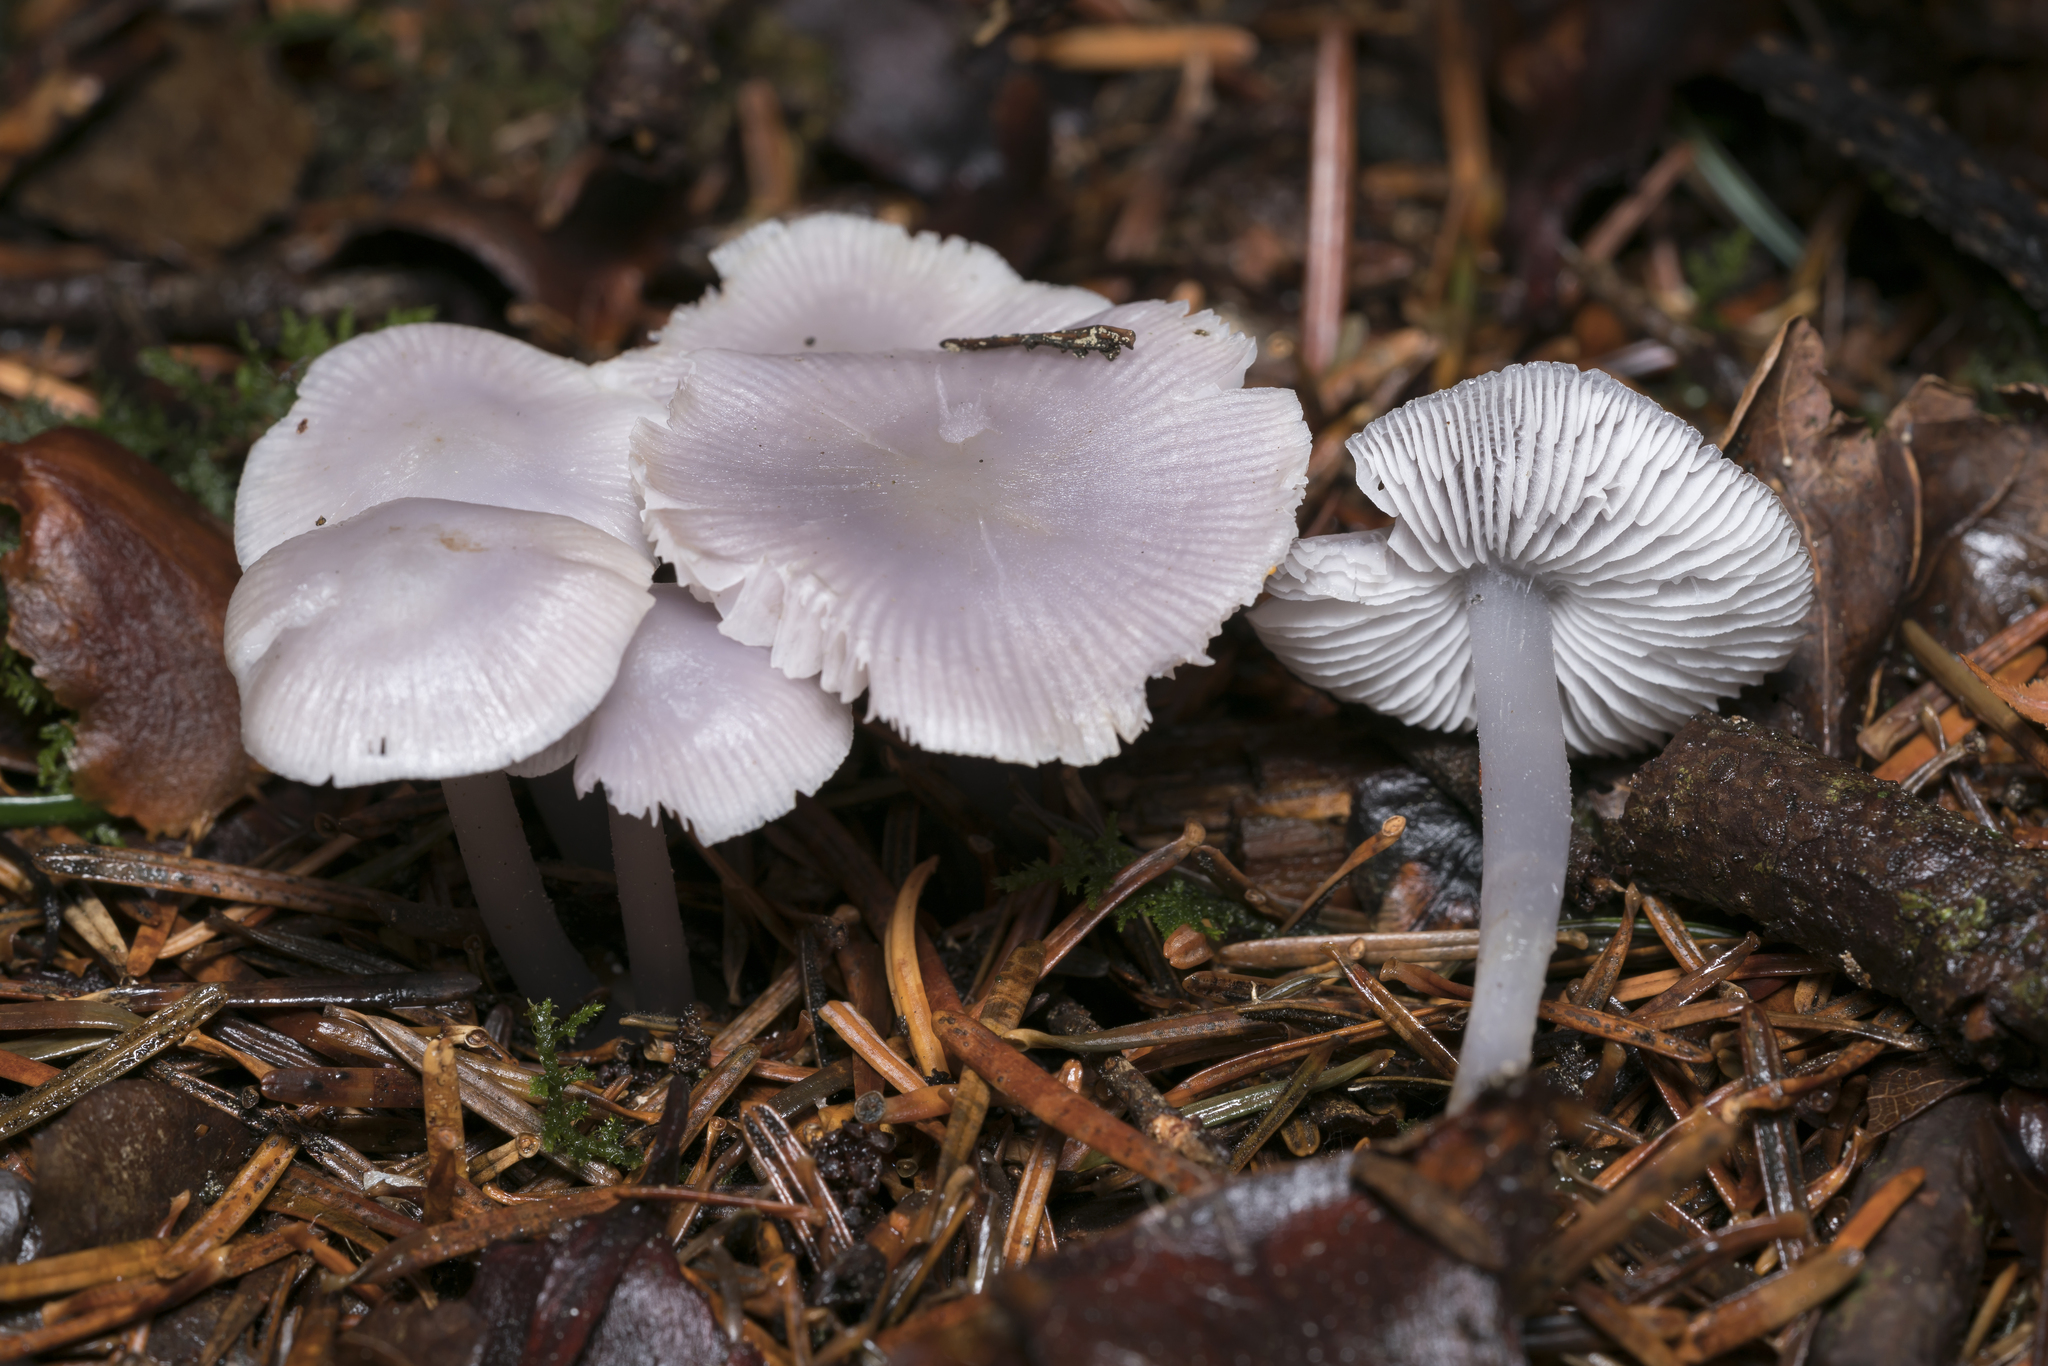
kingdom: Fungi
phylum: Basidiomycota
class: Agaricomycetes
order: Agaricales
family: Mycenaceae
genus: Mycena
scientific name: Mycena pura
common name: Lilac bonnet
